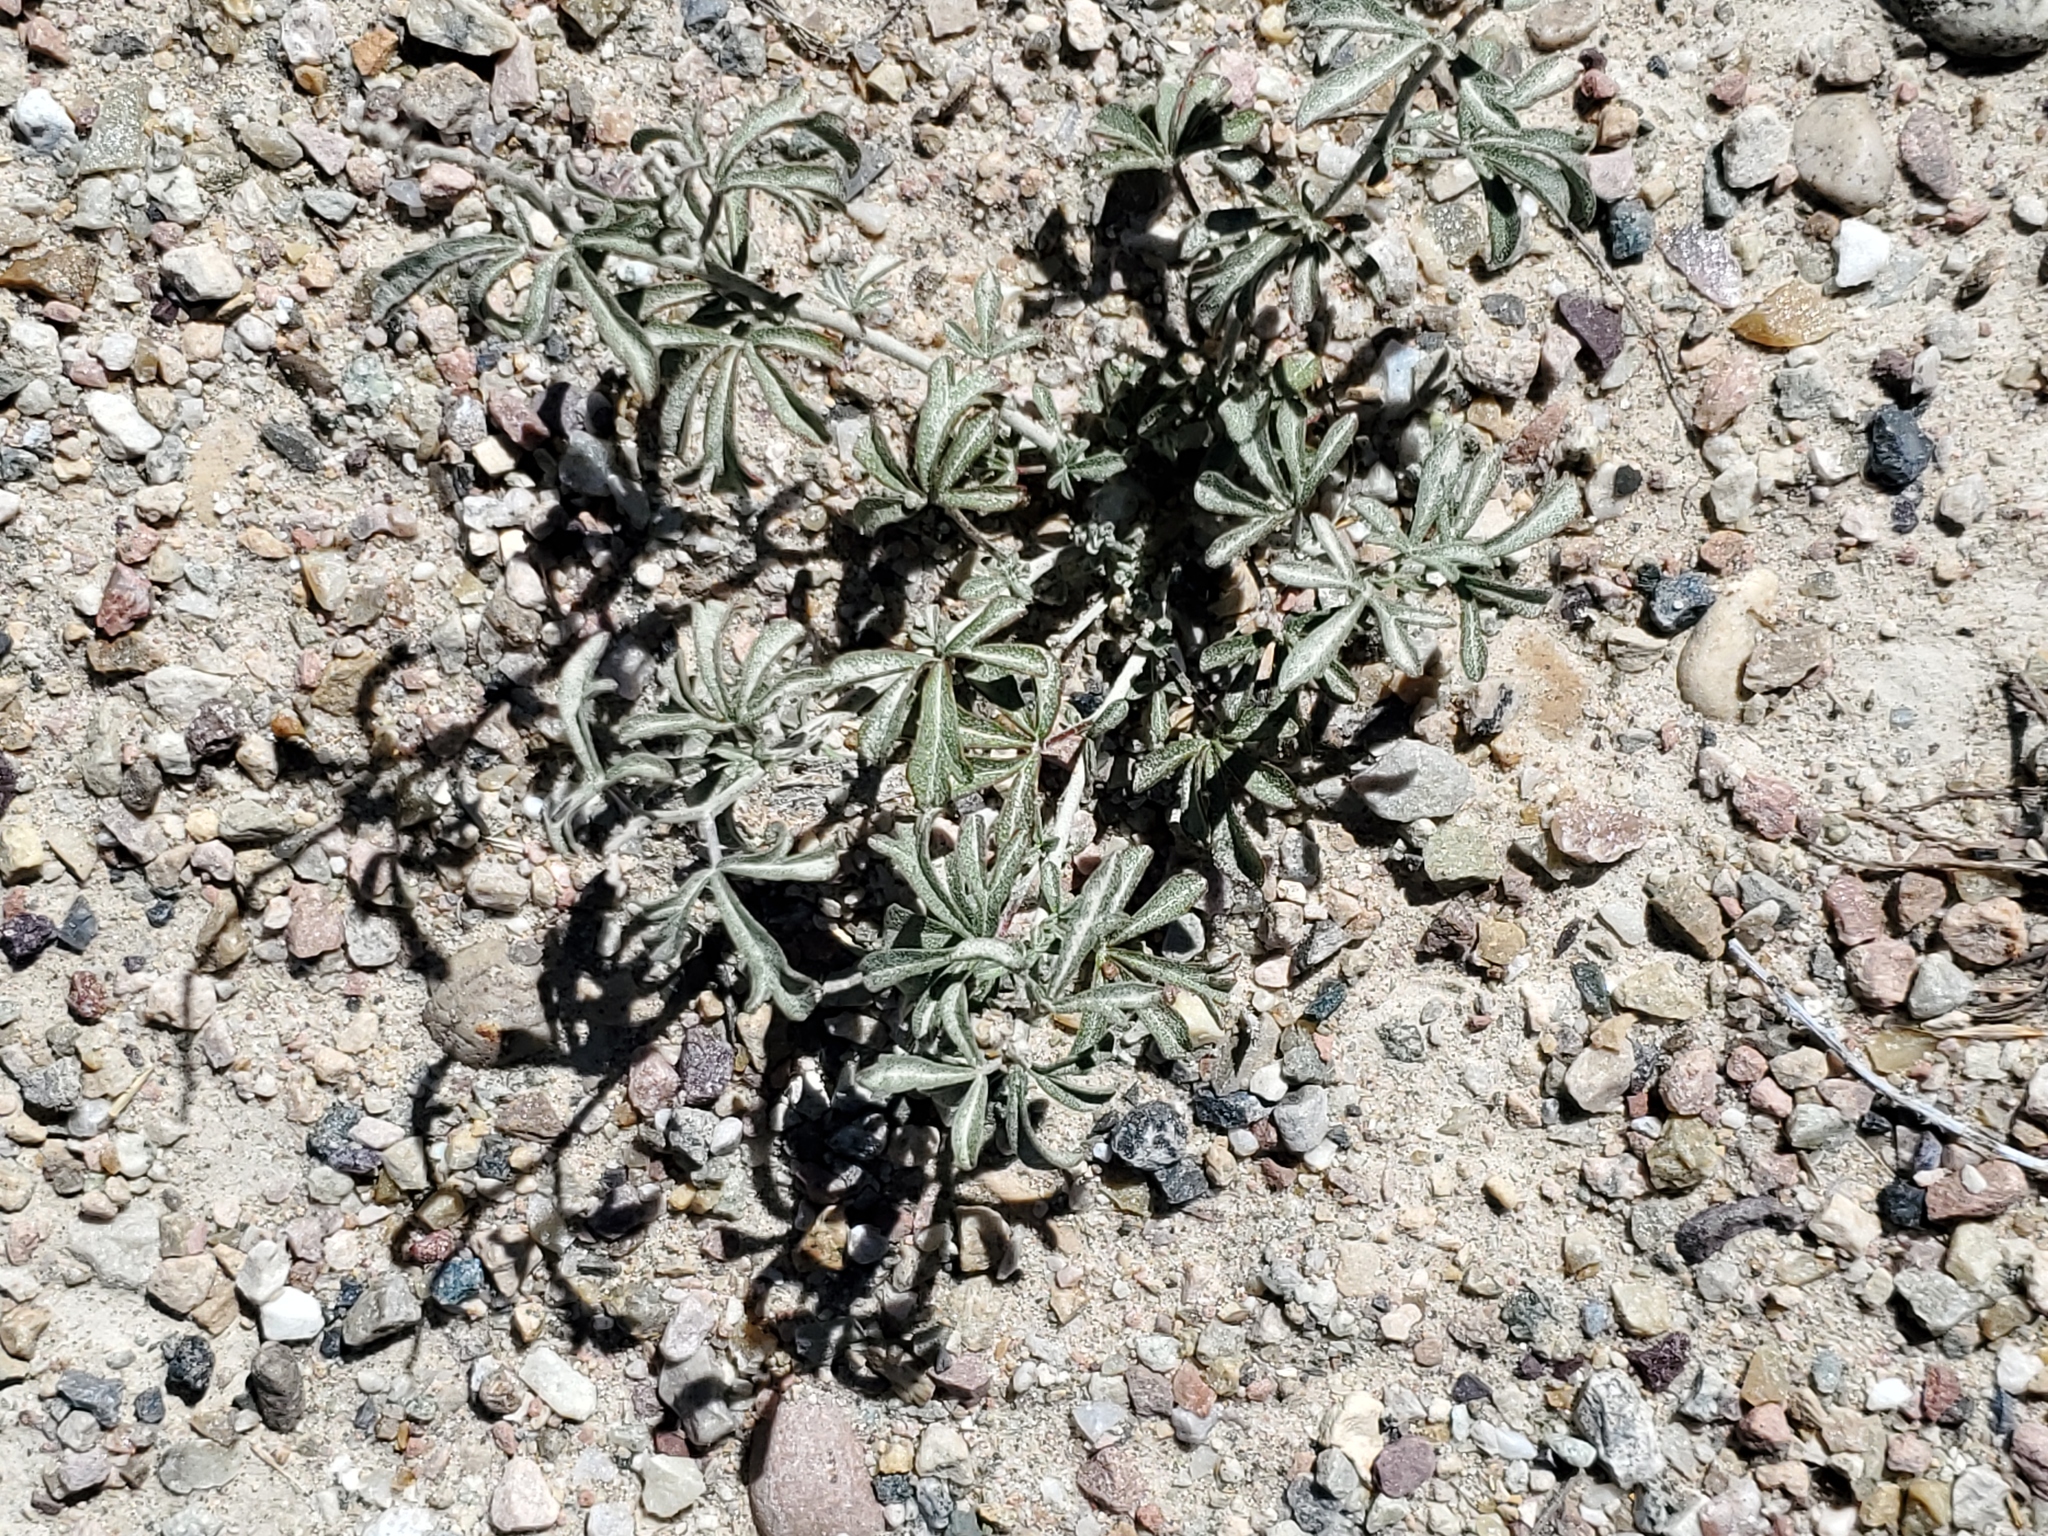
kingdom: Plantae
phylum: Tracheophyta
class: Magnoliopsida
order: Malvales
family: Malvaceae
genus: Sphaeralcea
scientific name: Sphaeralcea coccinea
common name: Moss-rose
